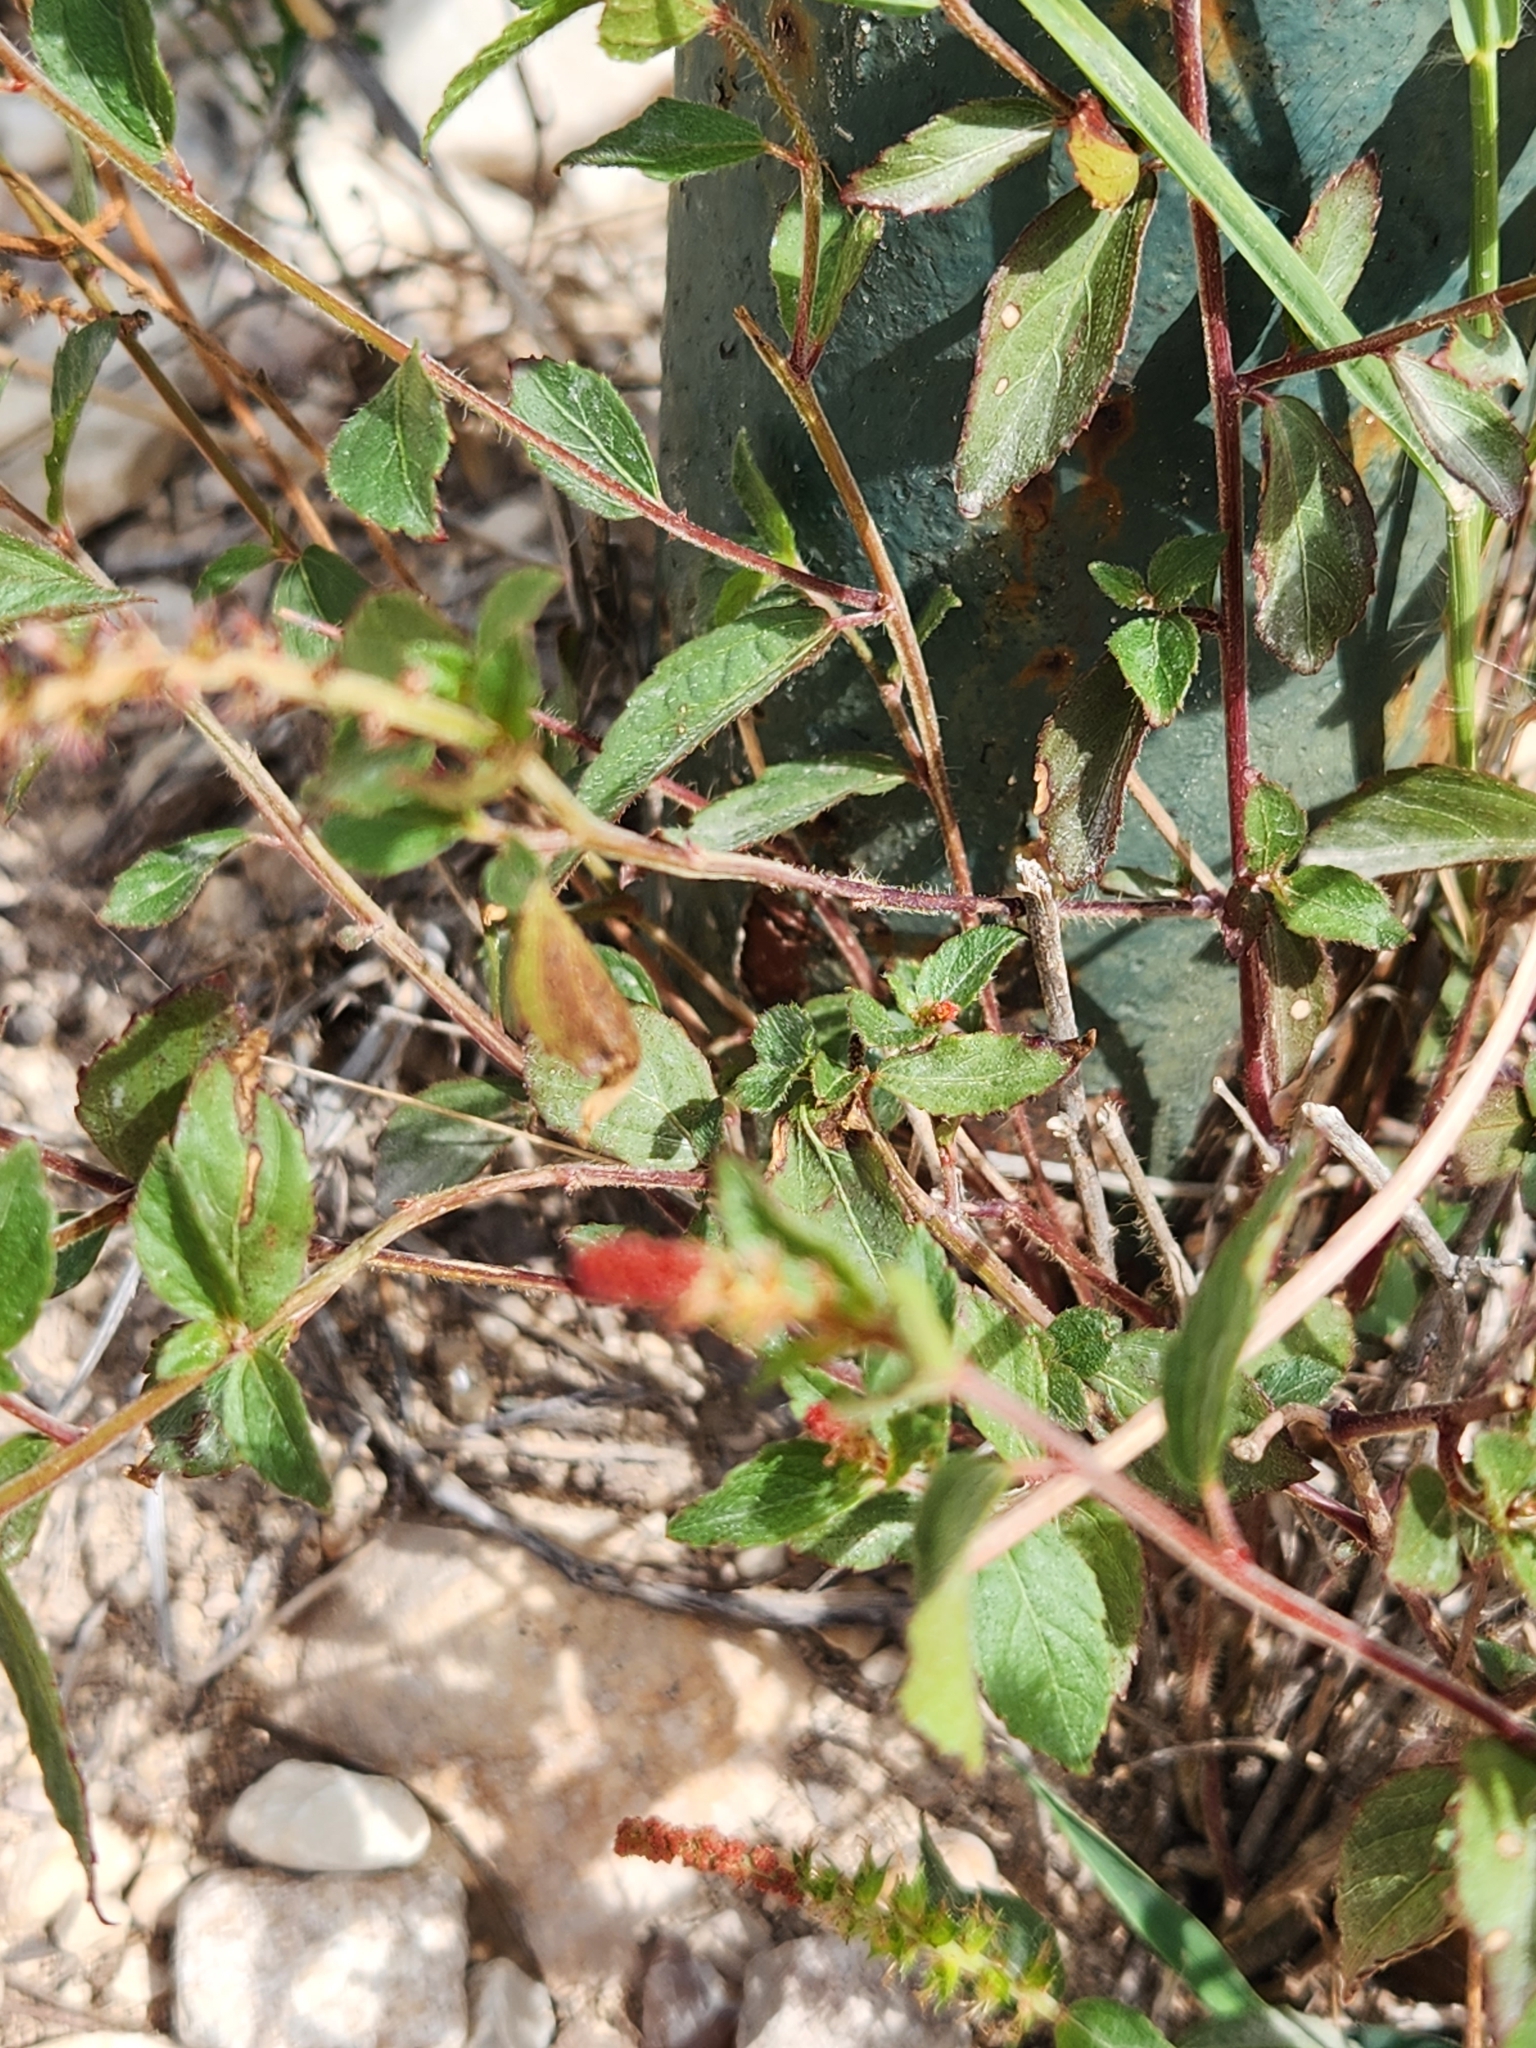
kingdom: Plantae
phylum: Tracheophyta
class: Magnoliopsida
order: Malpighiales
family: Euphorbiaceae
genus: Acalypha
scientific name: Acalypha phleoides
